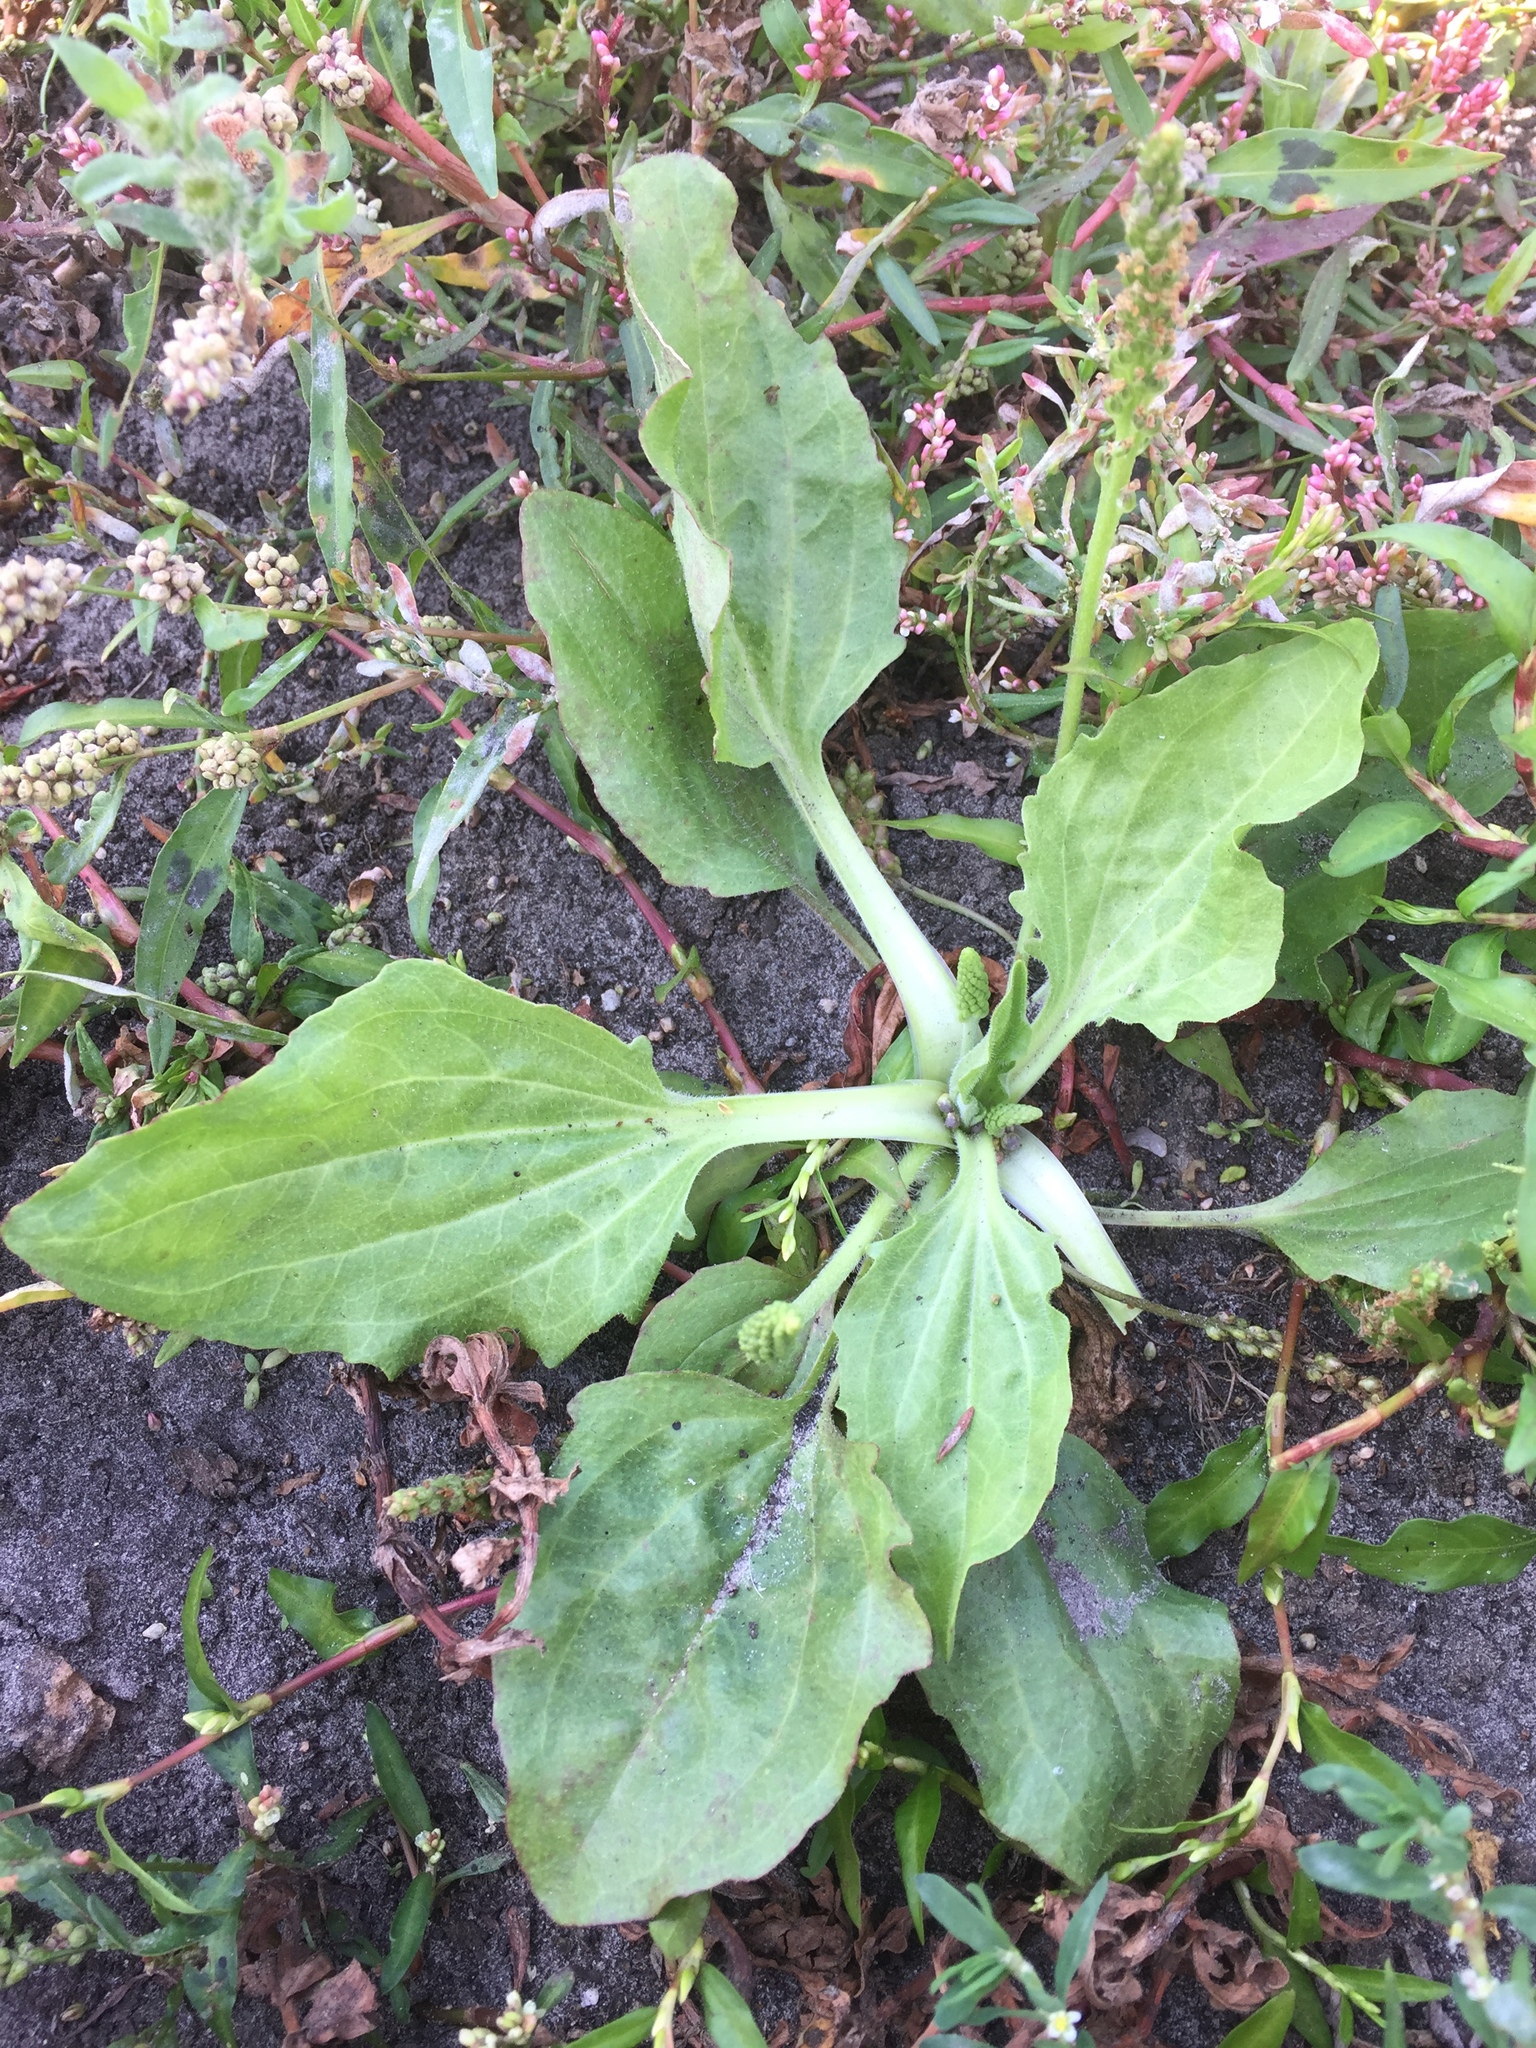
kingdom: Plantae
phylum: Tracheophyta
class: Magnoliopsida
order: Lamiales
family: Plantaginaceae
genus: Plantago
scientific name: Plantago major
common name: Common plantain
